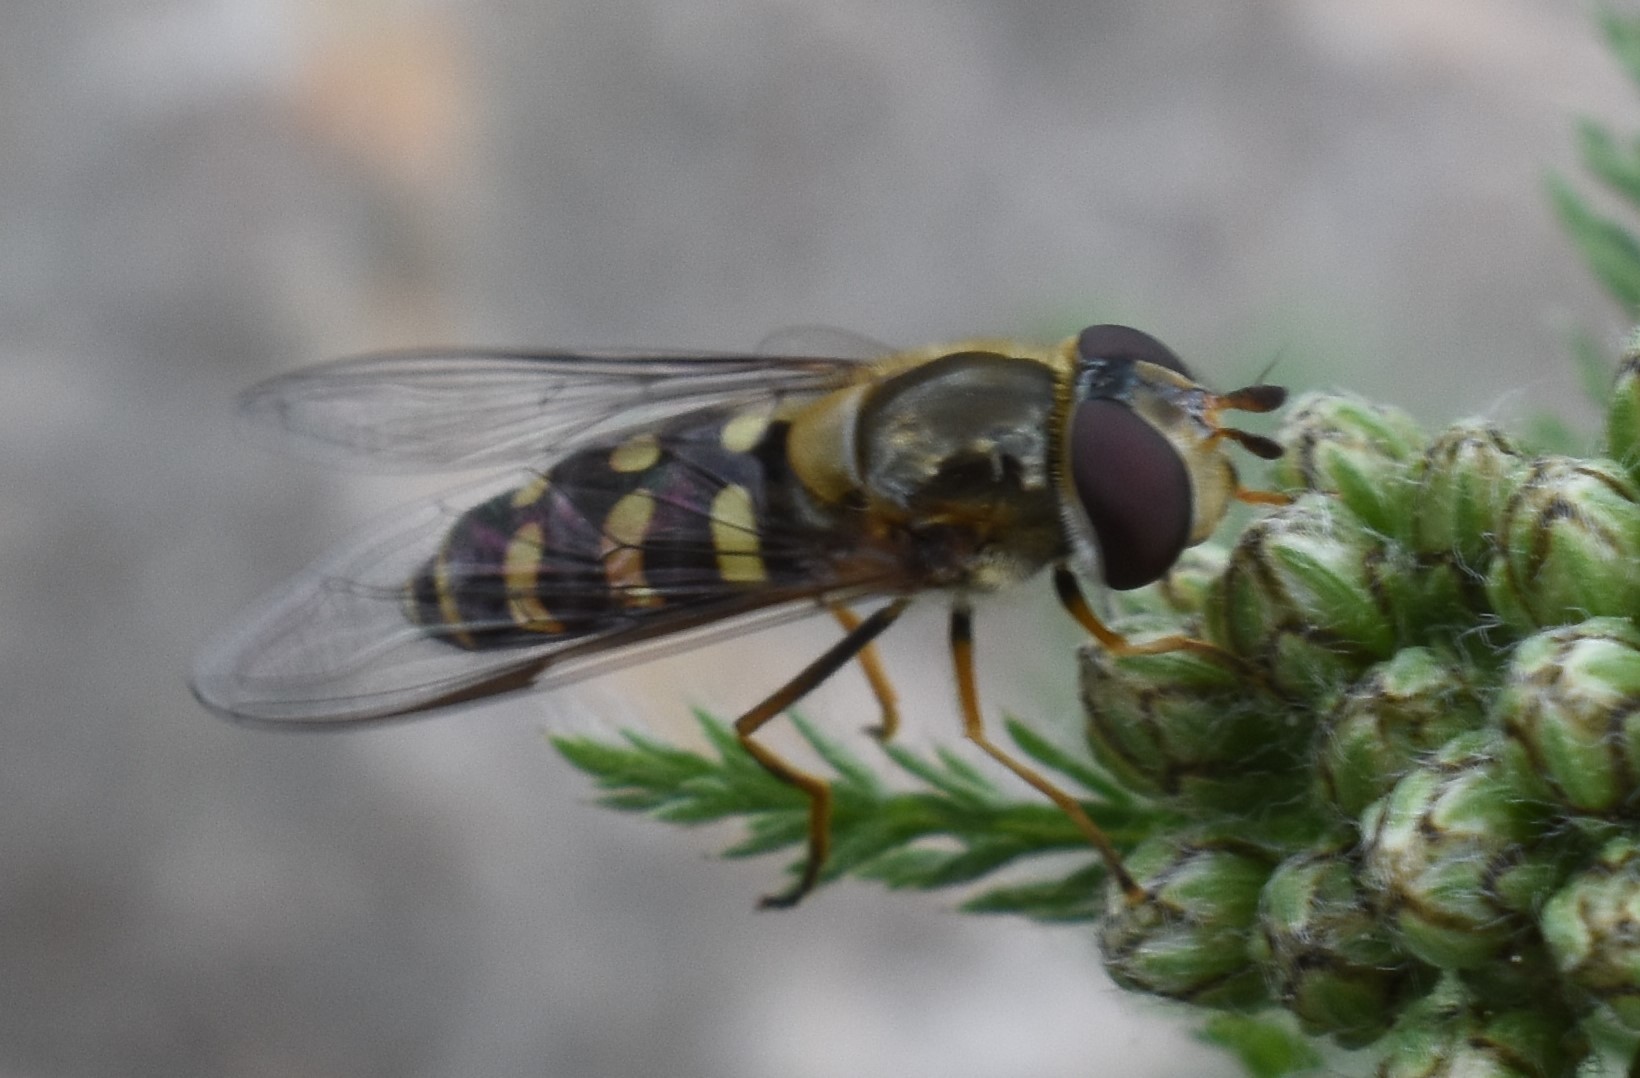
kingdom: Animalia
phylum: Arthropoda
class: Insecta
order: Diptera
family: Syrphidae
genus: Lapposyrphus
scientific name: Lapposyrphus lapponicus
